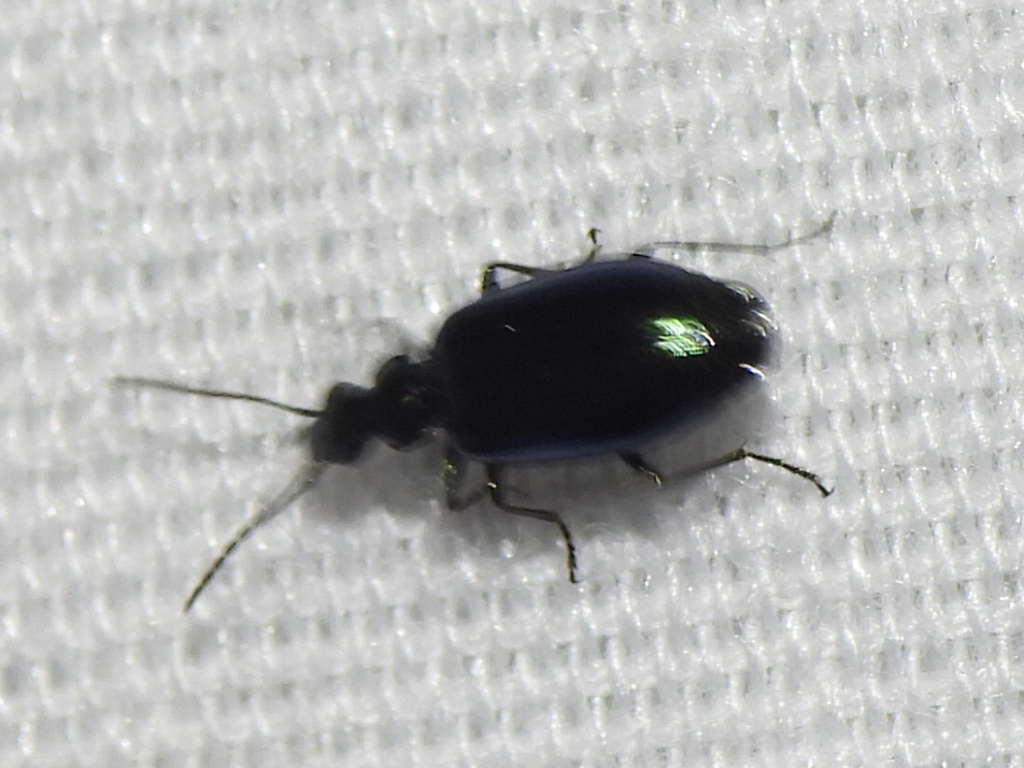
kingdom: Animalia
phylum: Arthropoda
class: Insecta
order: Coleoptera
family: Carabidae
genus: Lebia
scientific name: Lebia viridis
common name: Flower lebia beetle
